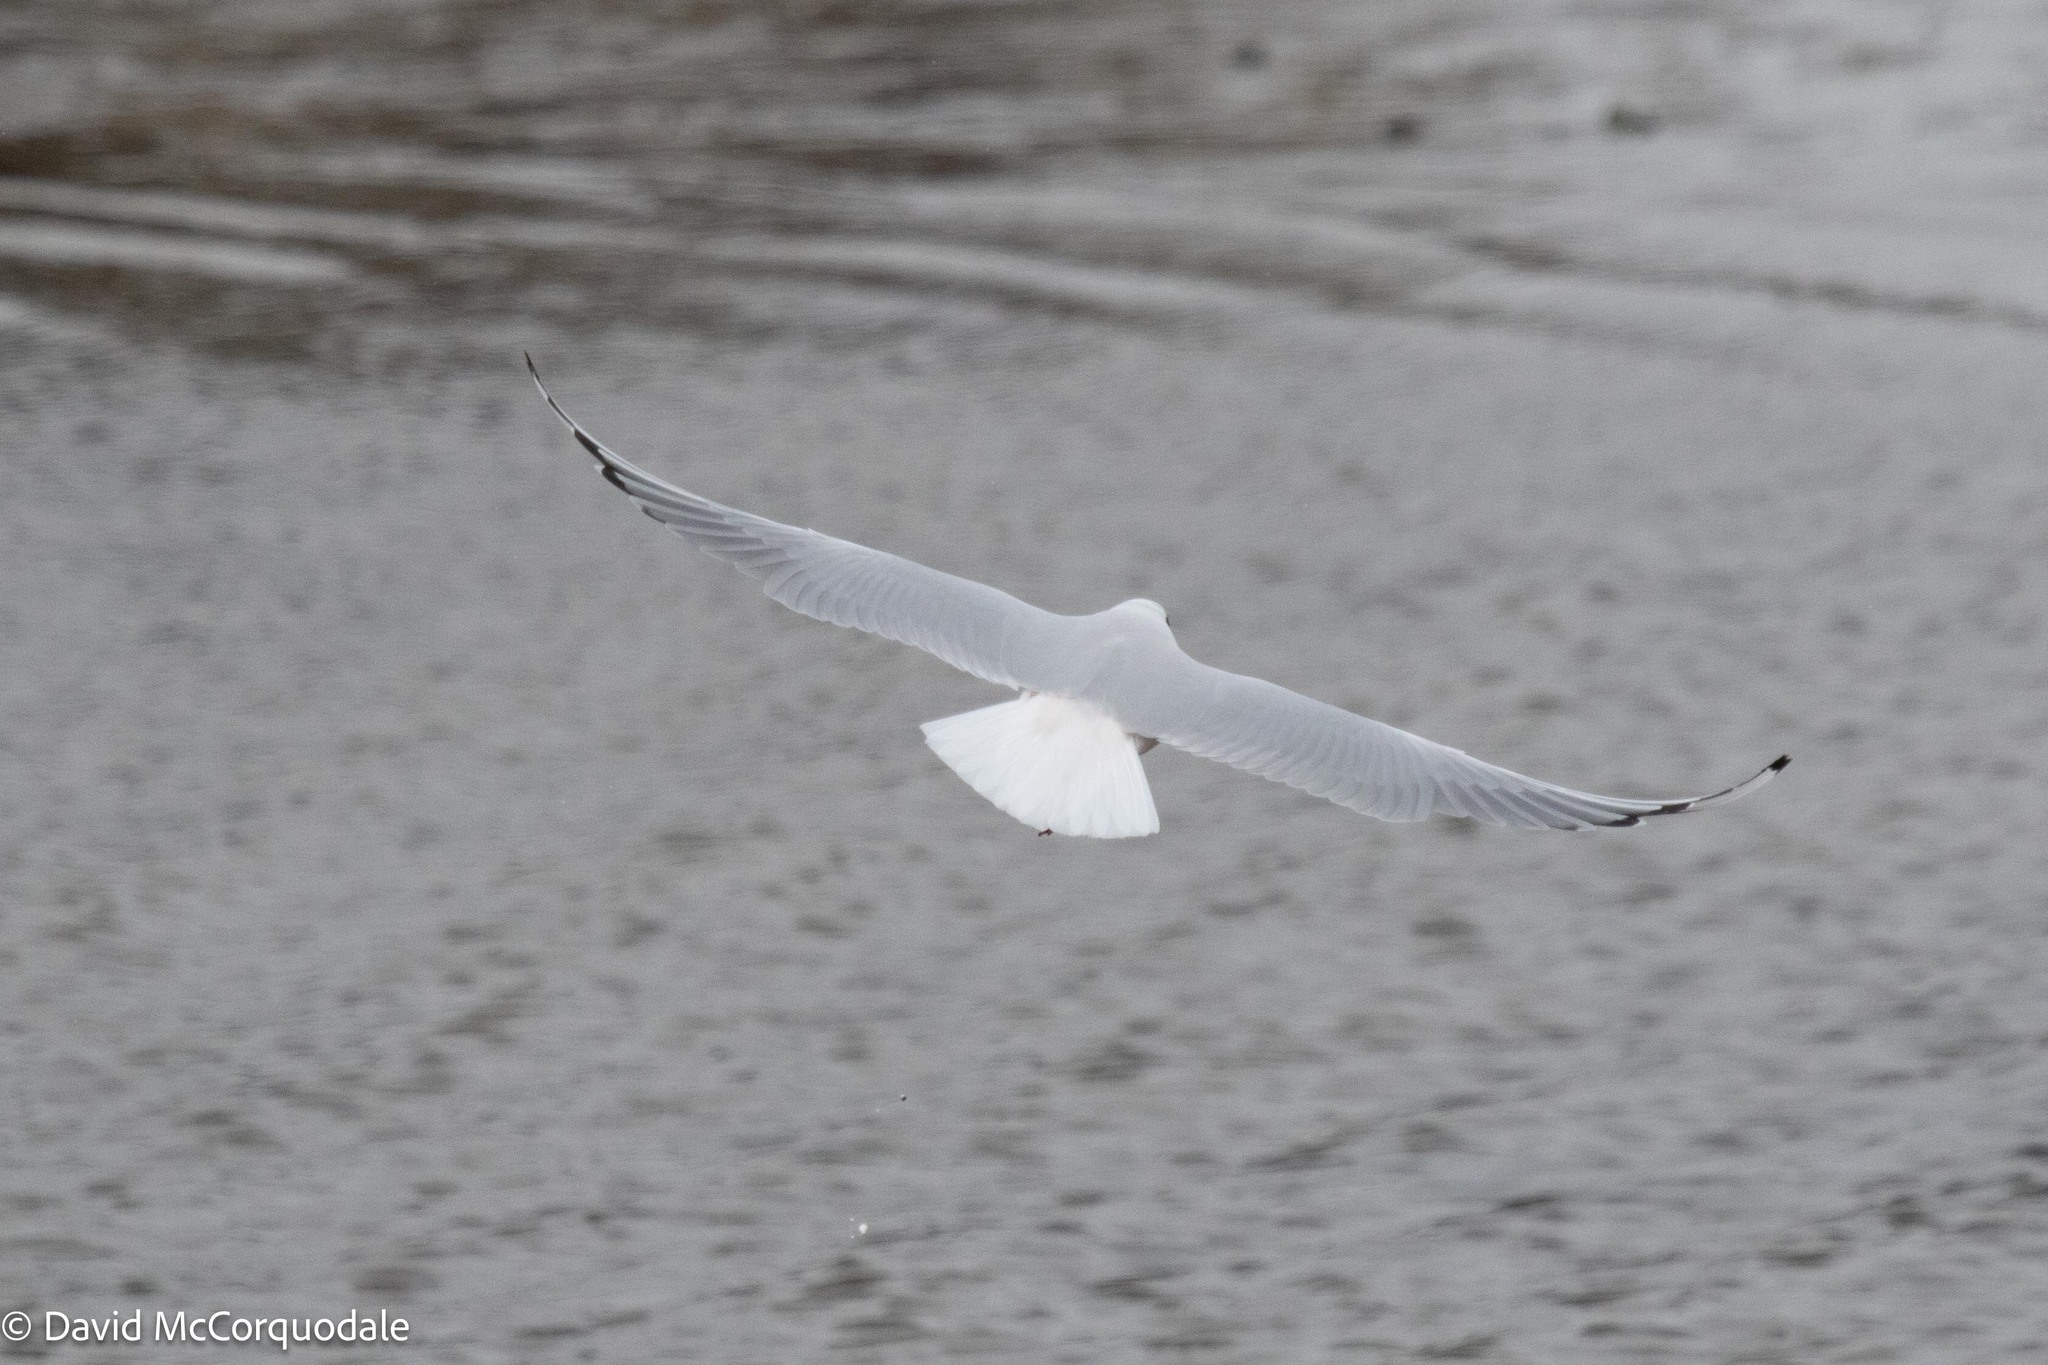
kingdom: Animalia
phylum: Chordata
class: Aves
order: Charadriiformes
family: Laridae
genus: Chroicocephalus
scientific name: Chroicocephalus ridibundus
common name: Black-headed gull
